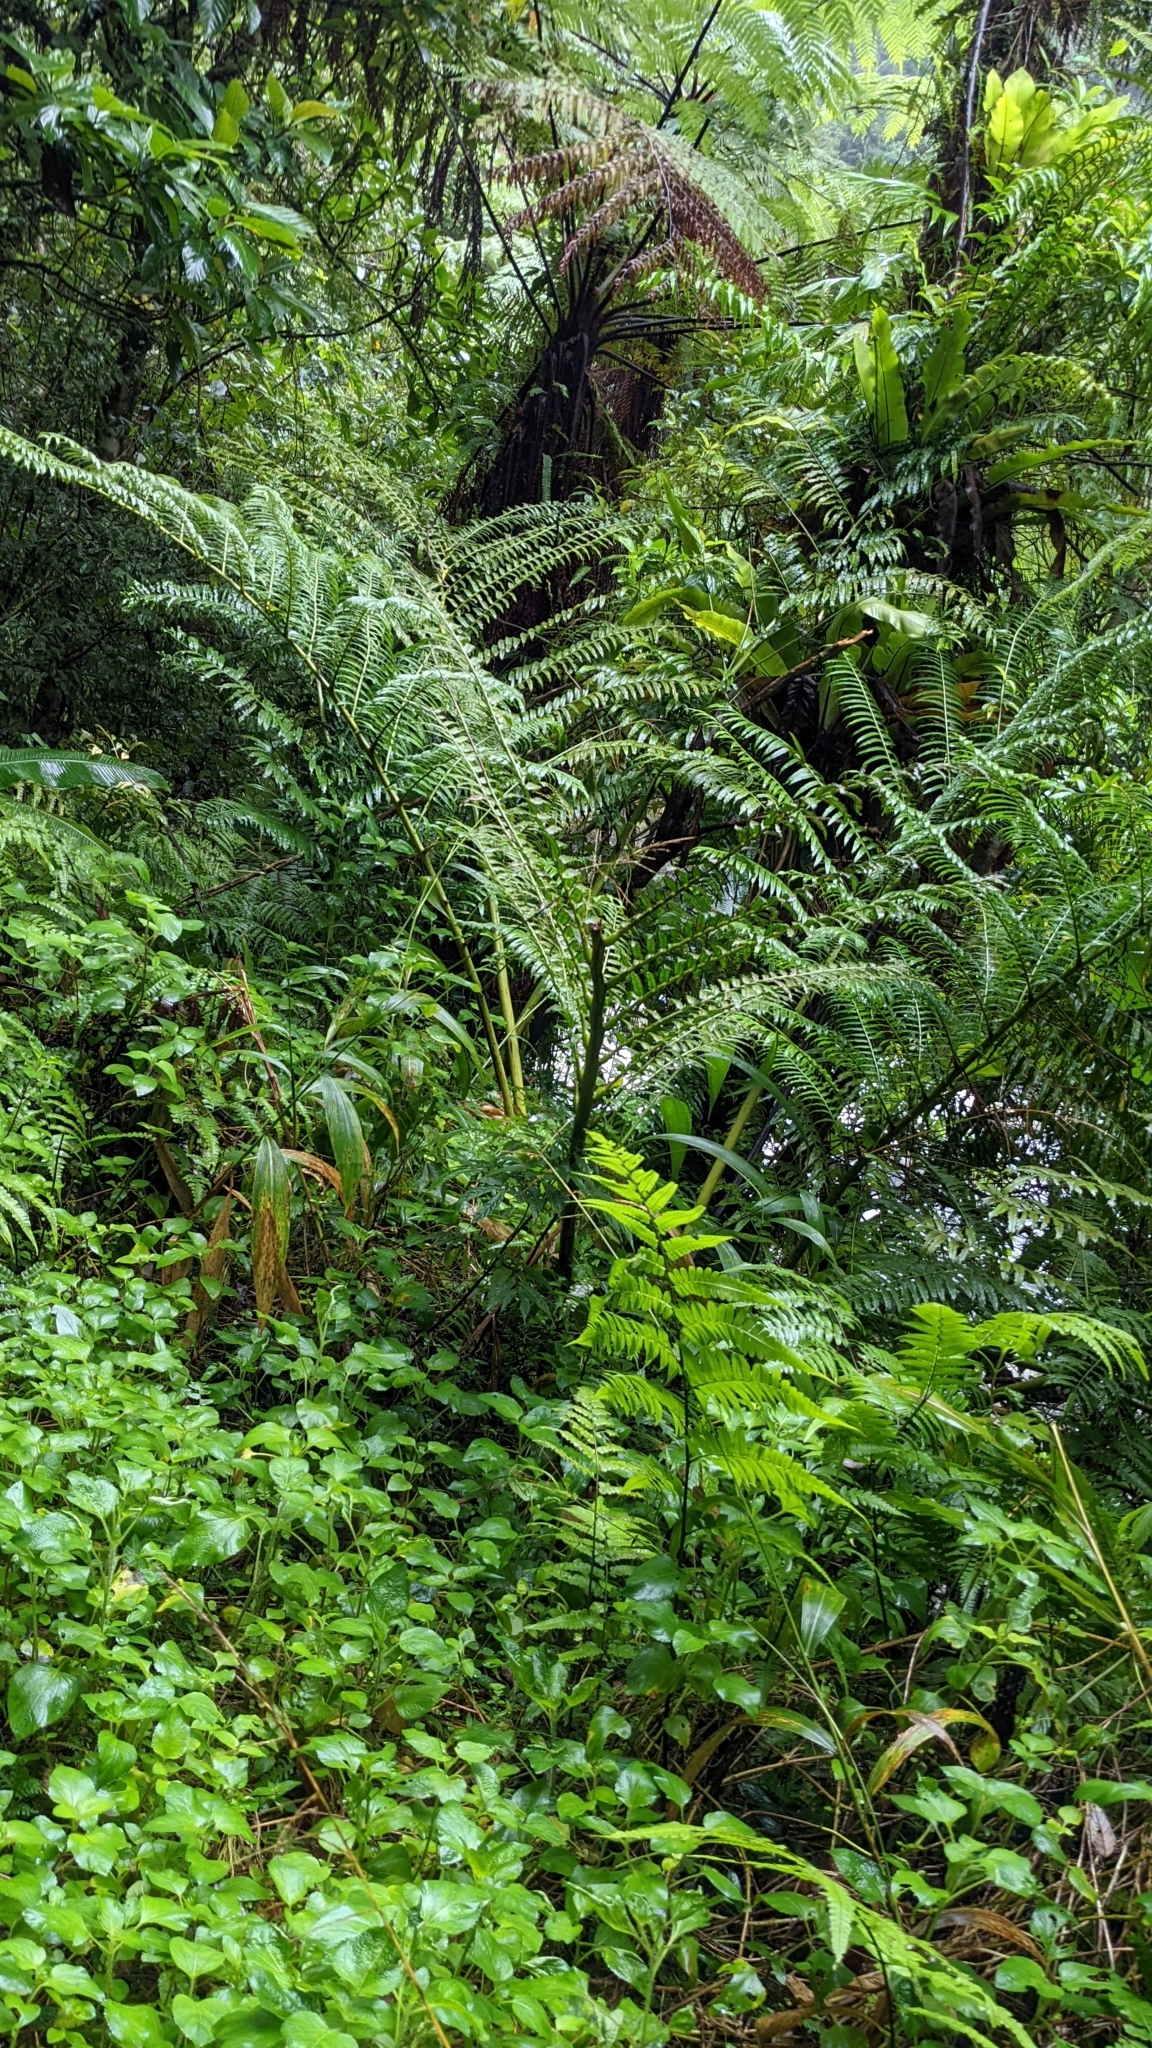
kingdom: Plantae
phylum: Tracheophyta
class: Polypodiopsida
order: Marattiales
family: Marattiaceae
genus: Angiopteris
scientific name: Angiopteris lygodiifolia
